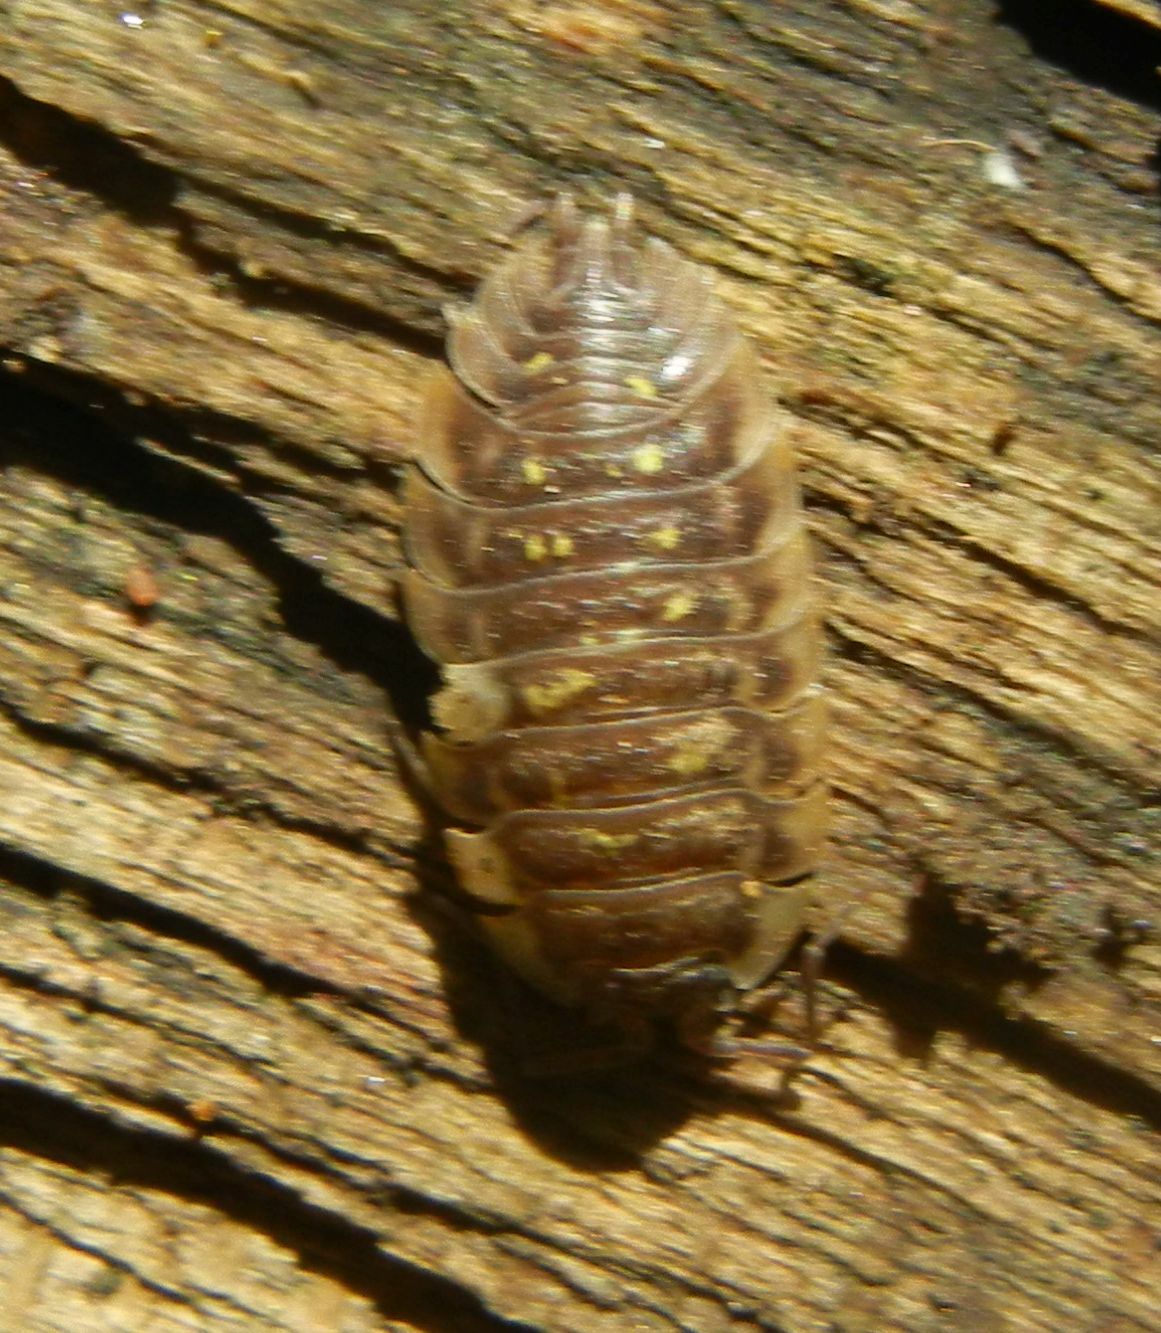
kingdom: Animalia
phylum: Arthropoda
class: Malacostraca
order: Isopoda
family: Oniscidae
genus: Oniscus
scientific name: Oniscus asellus
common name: Common shiny woodlouse
